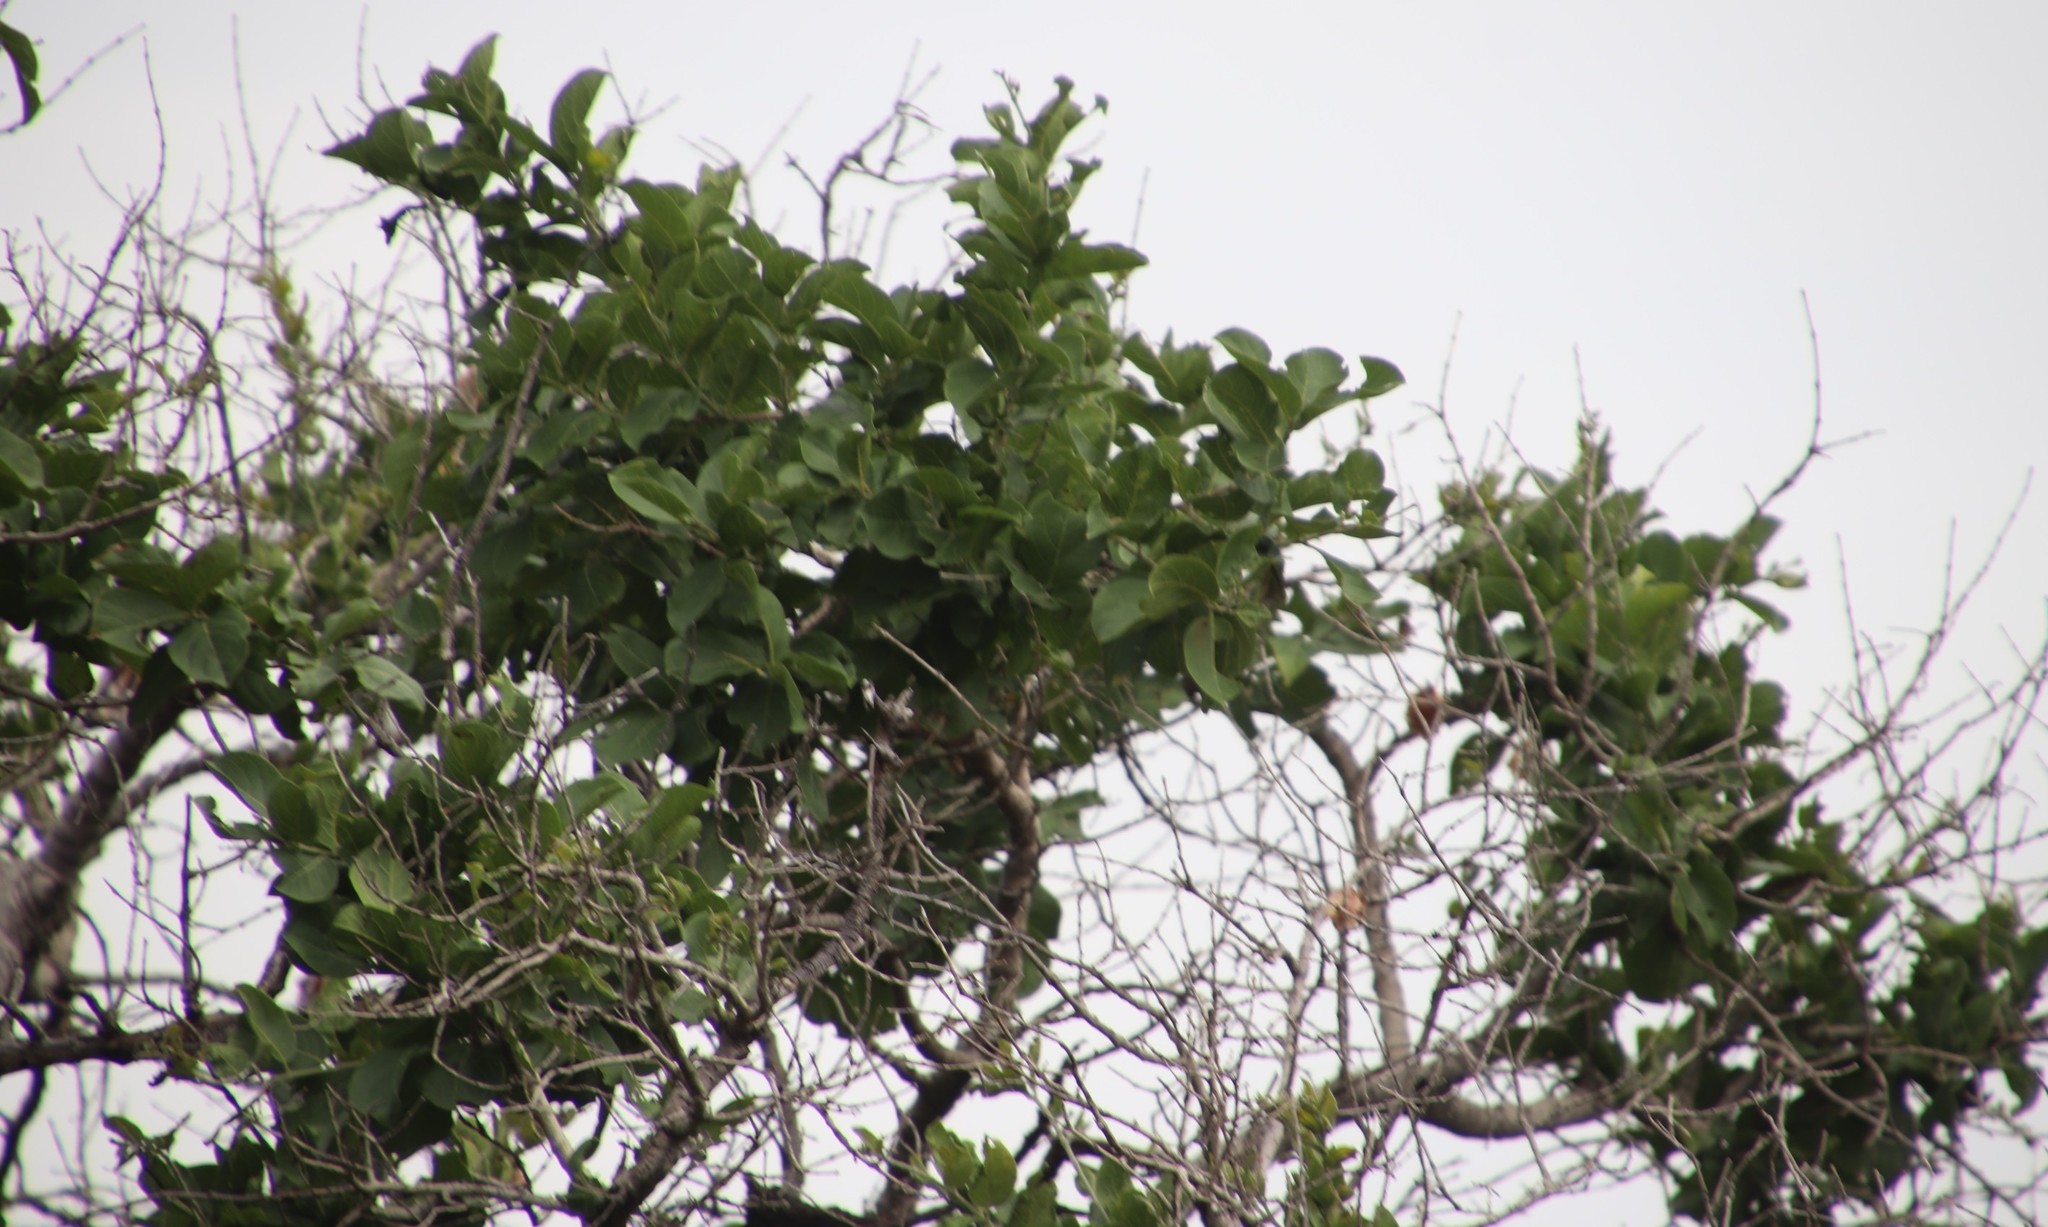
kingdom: Plantae
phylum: Tracheophyta
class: Magnoliopsida
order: Myrtales
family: Combretaceae
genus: Combretum
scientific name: Combretum zeyheri
